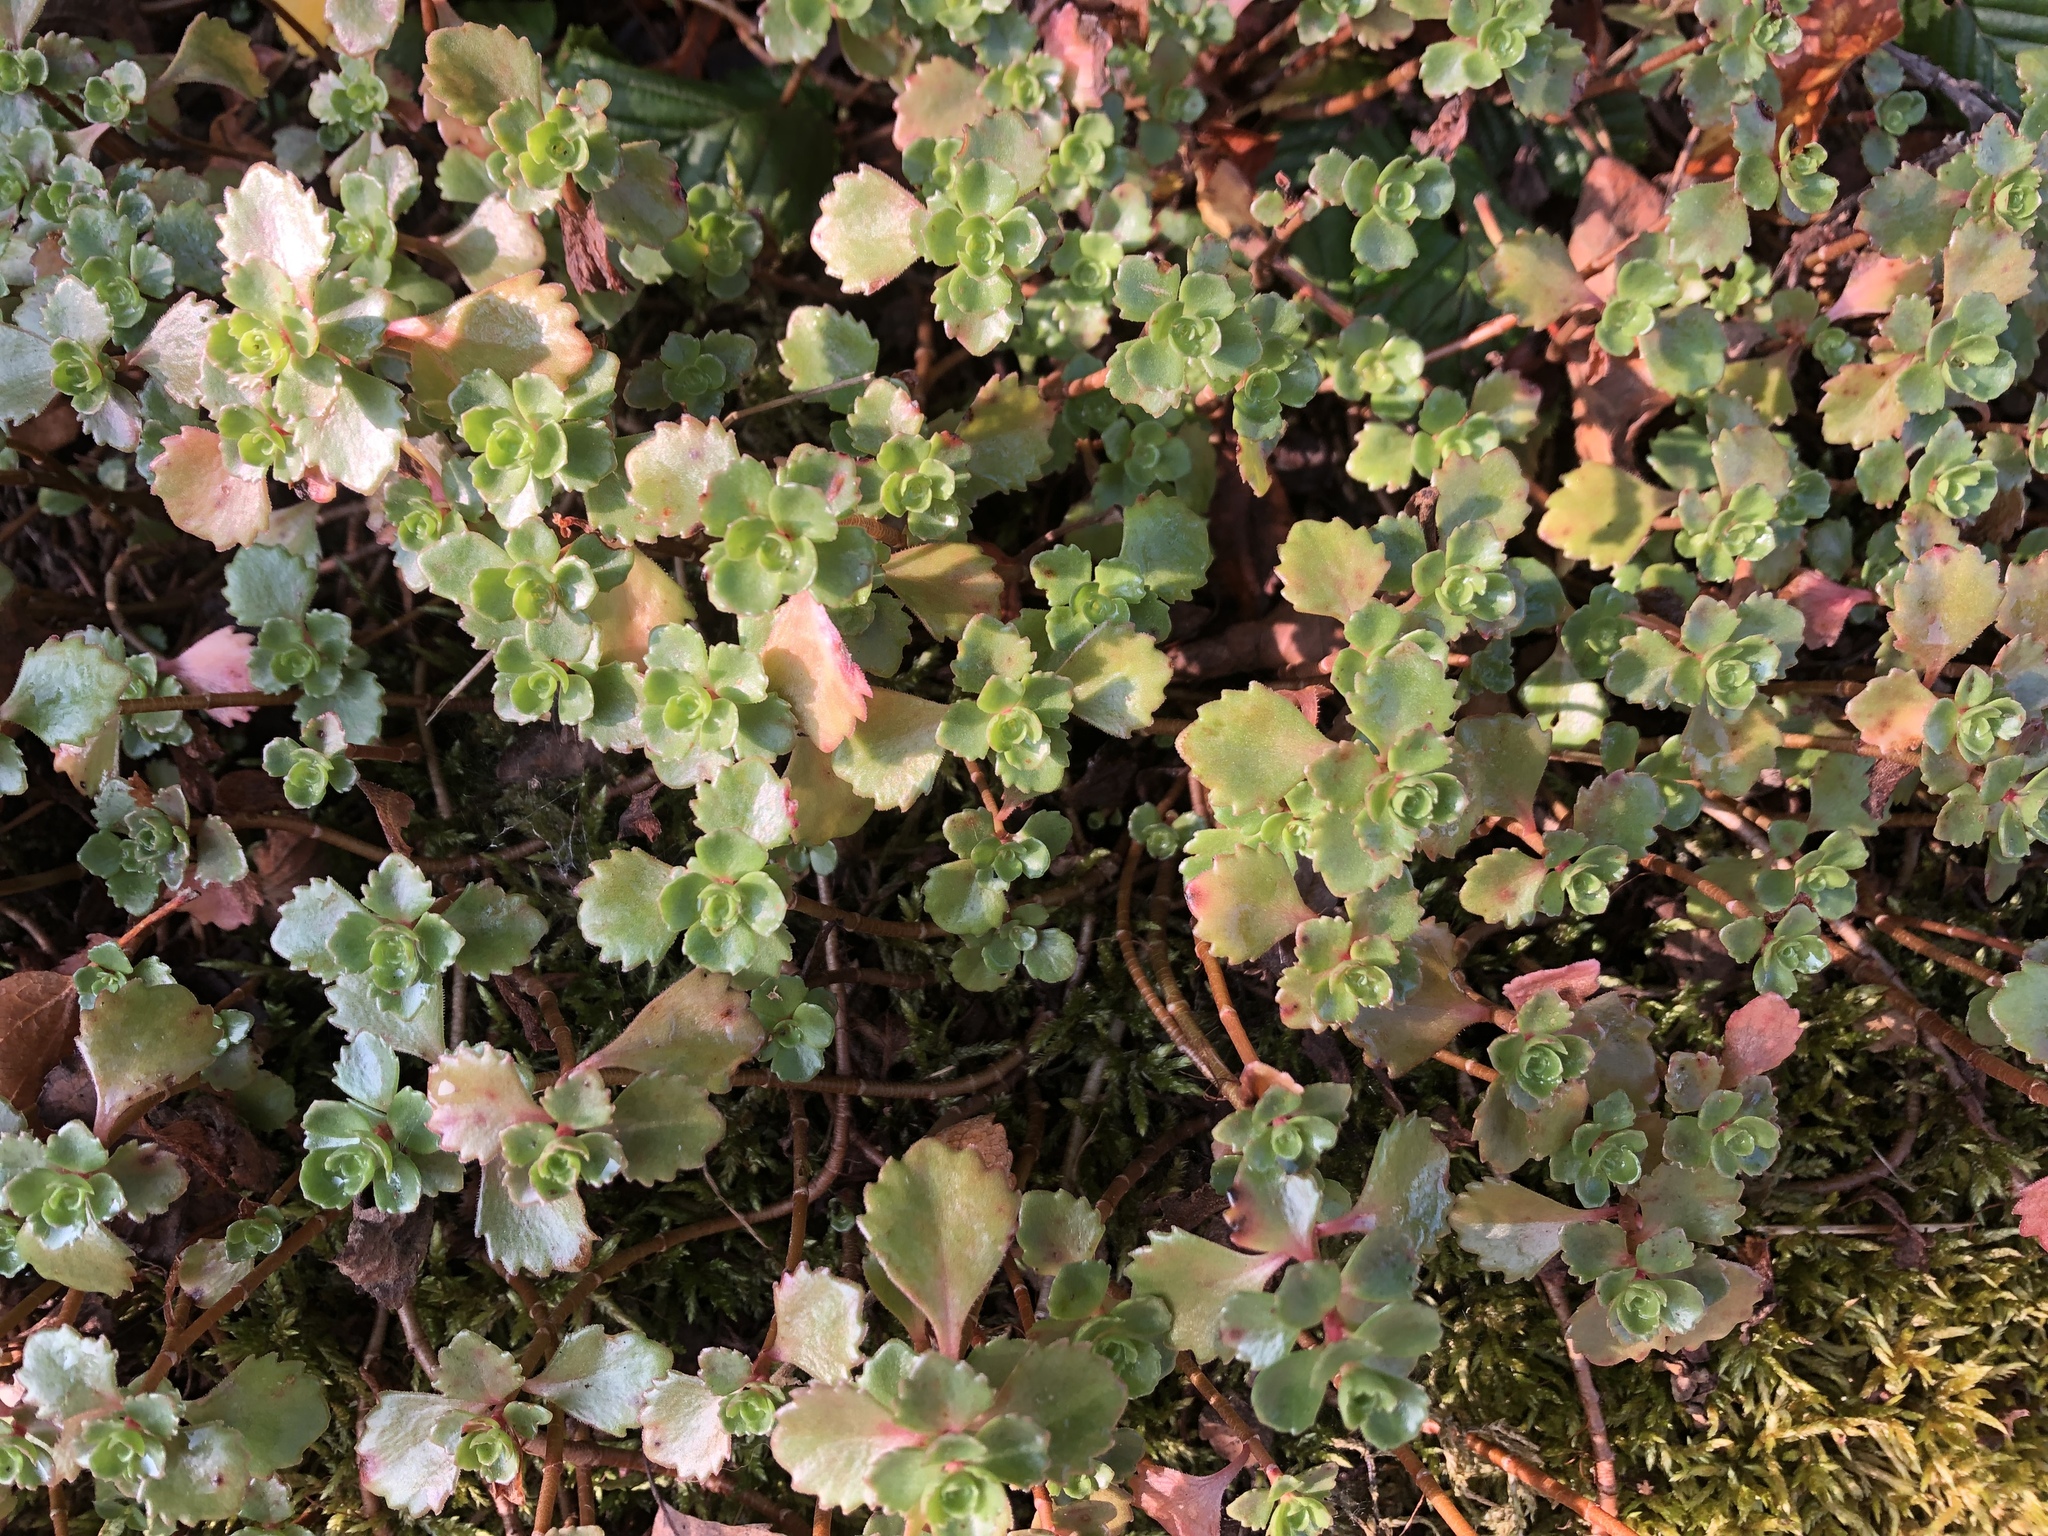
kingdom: Plantae
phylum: Tracheophyta
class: Magnoliopsida
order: Saxifragales
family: Crassulaceae
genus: Phedimus
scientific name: Phedimus spurius
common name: Caucasian stonecrop
